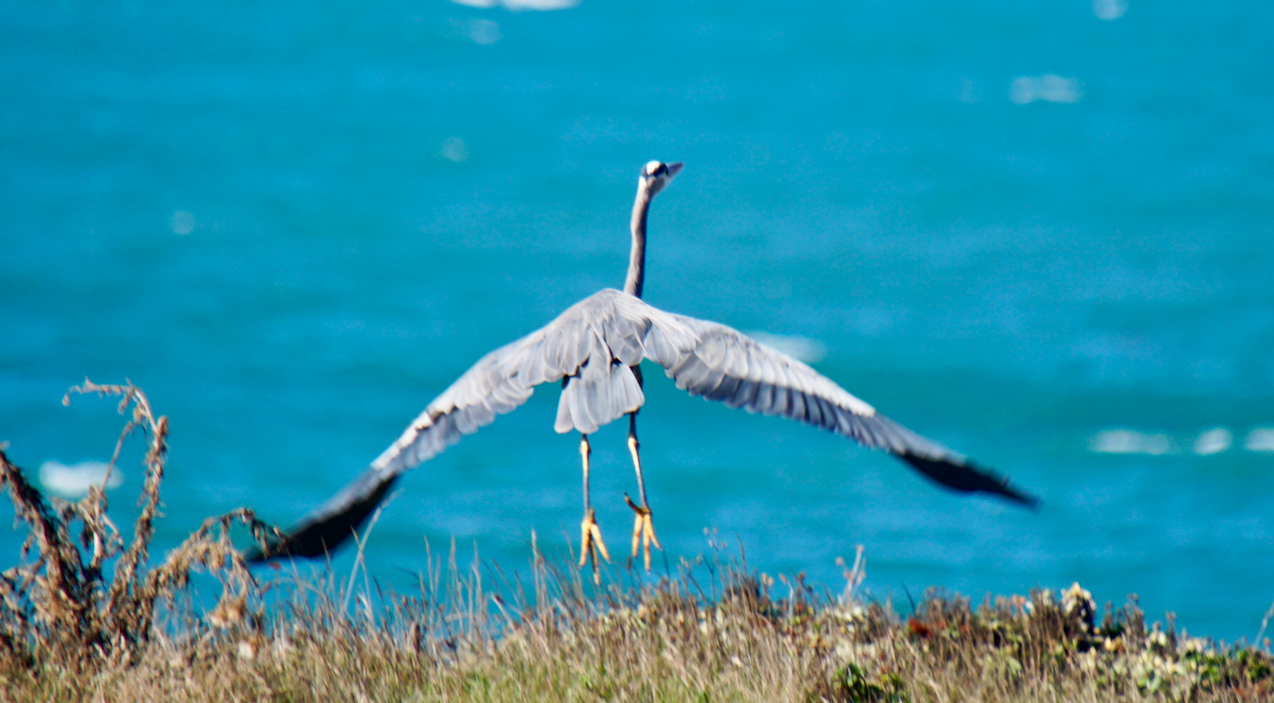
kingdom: Animalia
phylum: Chordata
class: Aves
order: Pelecaniformes
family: Ardeidae
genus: Ardea
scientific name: Ardea herodias
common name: Great blue heron
